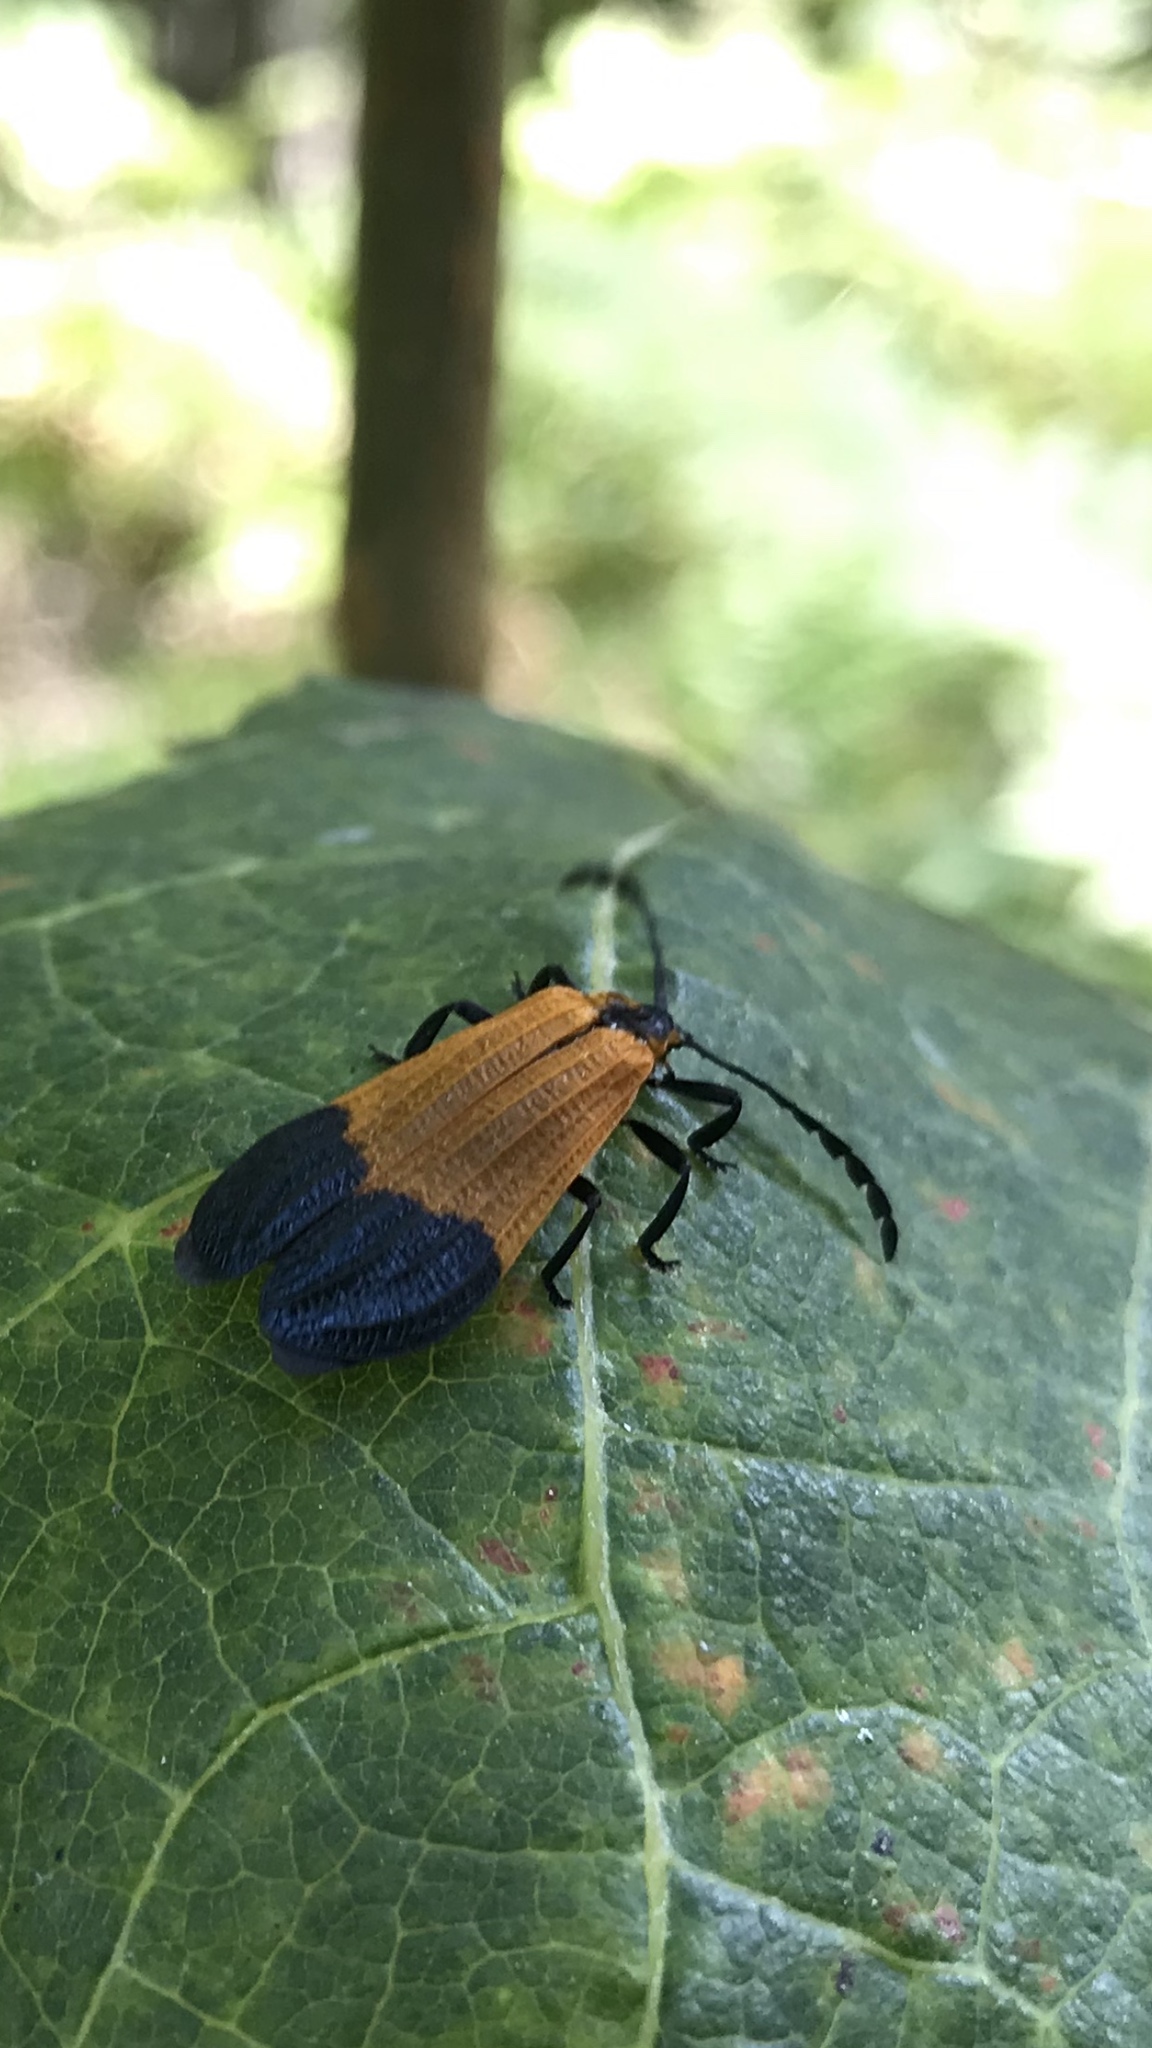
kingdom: Animalia
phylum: Arthropoda
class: Insecta
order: Coleoptera
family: Lycidae
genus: Calopteron
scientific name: Calopteron terminale
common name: End band net-winged beetle
